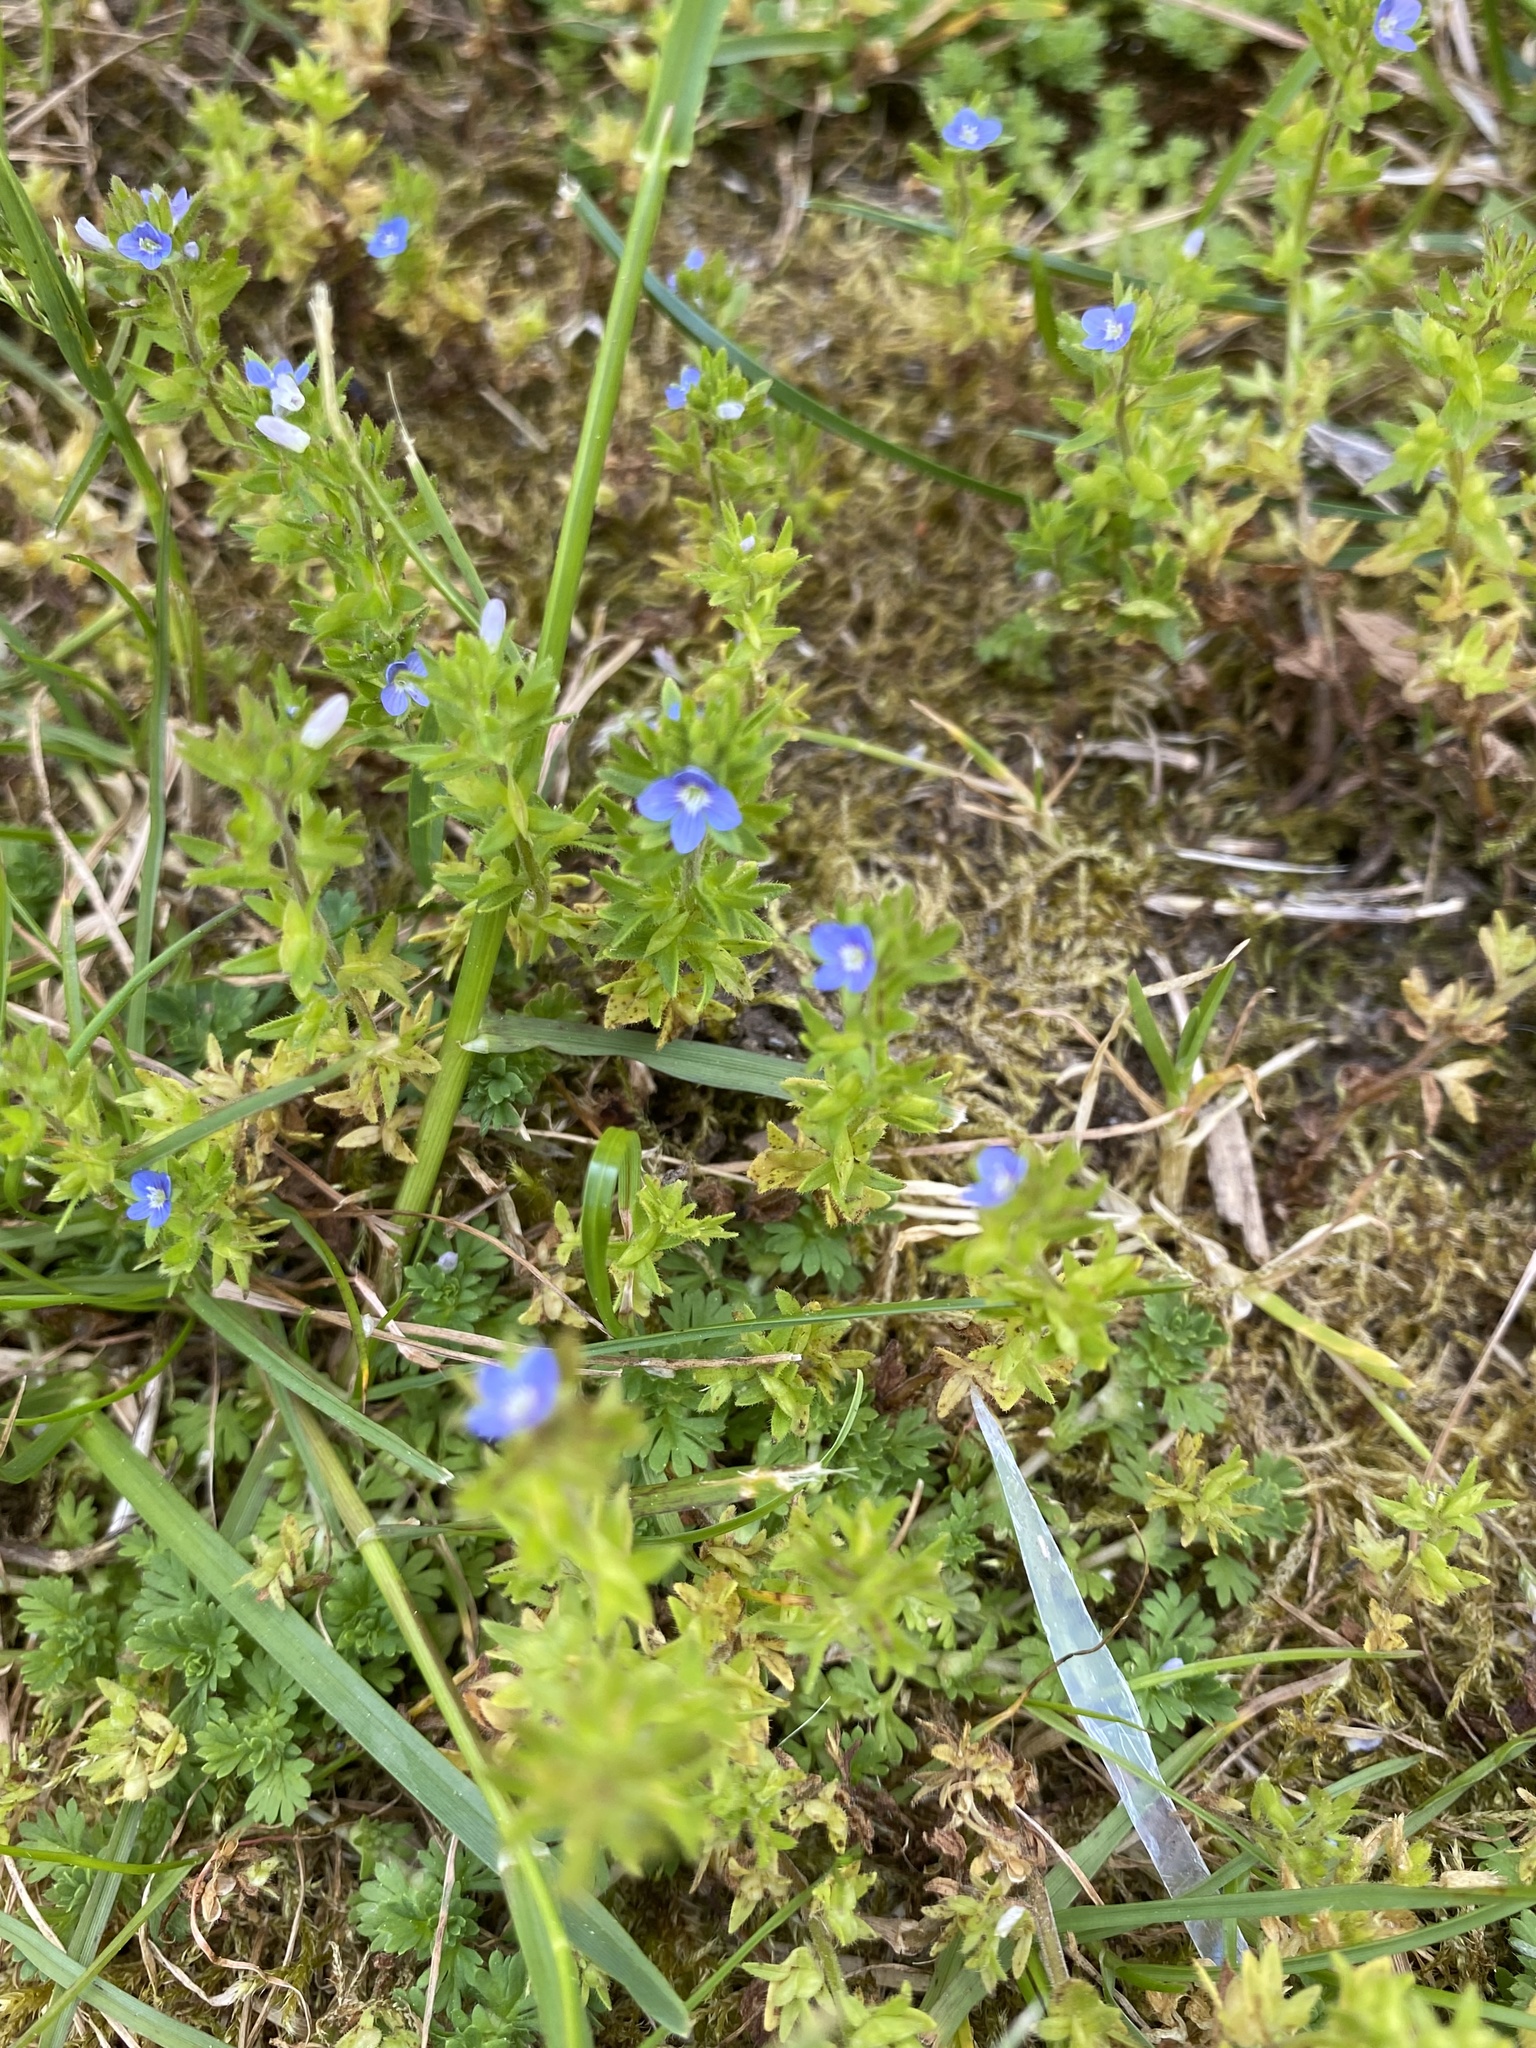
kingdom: Plantae
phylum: Tracheophyta
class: Magnoliopsida
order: Lamiales
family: Plantaginaceae
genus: Veronica
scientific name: Veronica arvensis
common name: Corn speedwell
